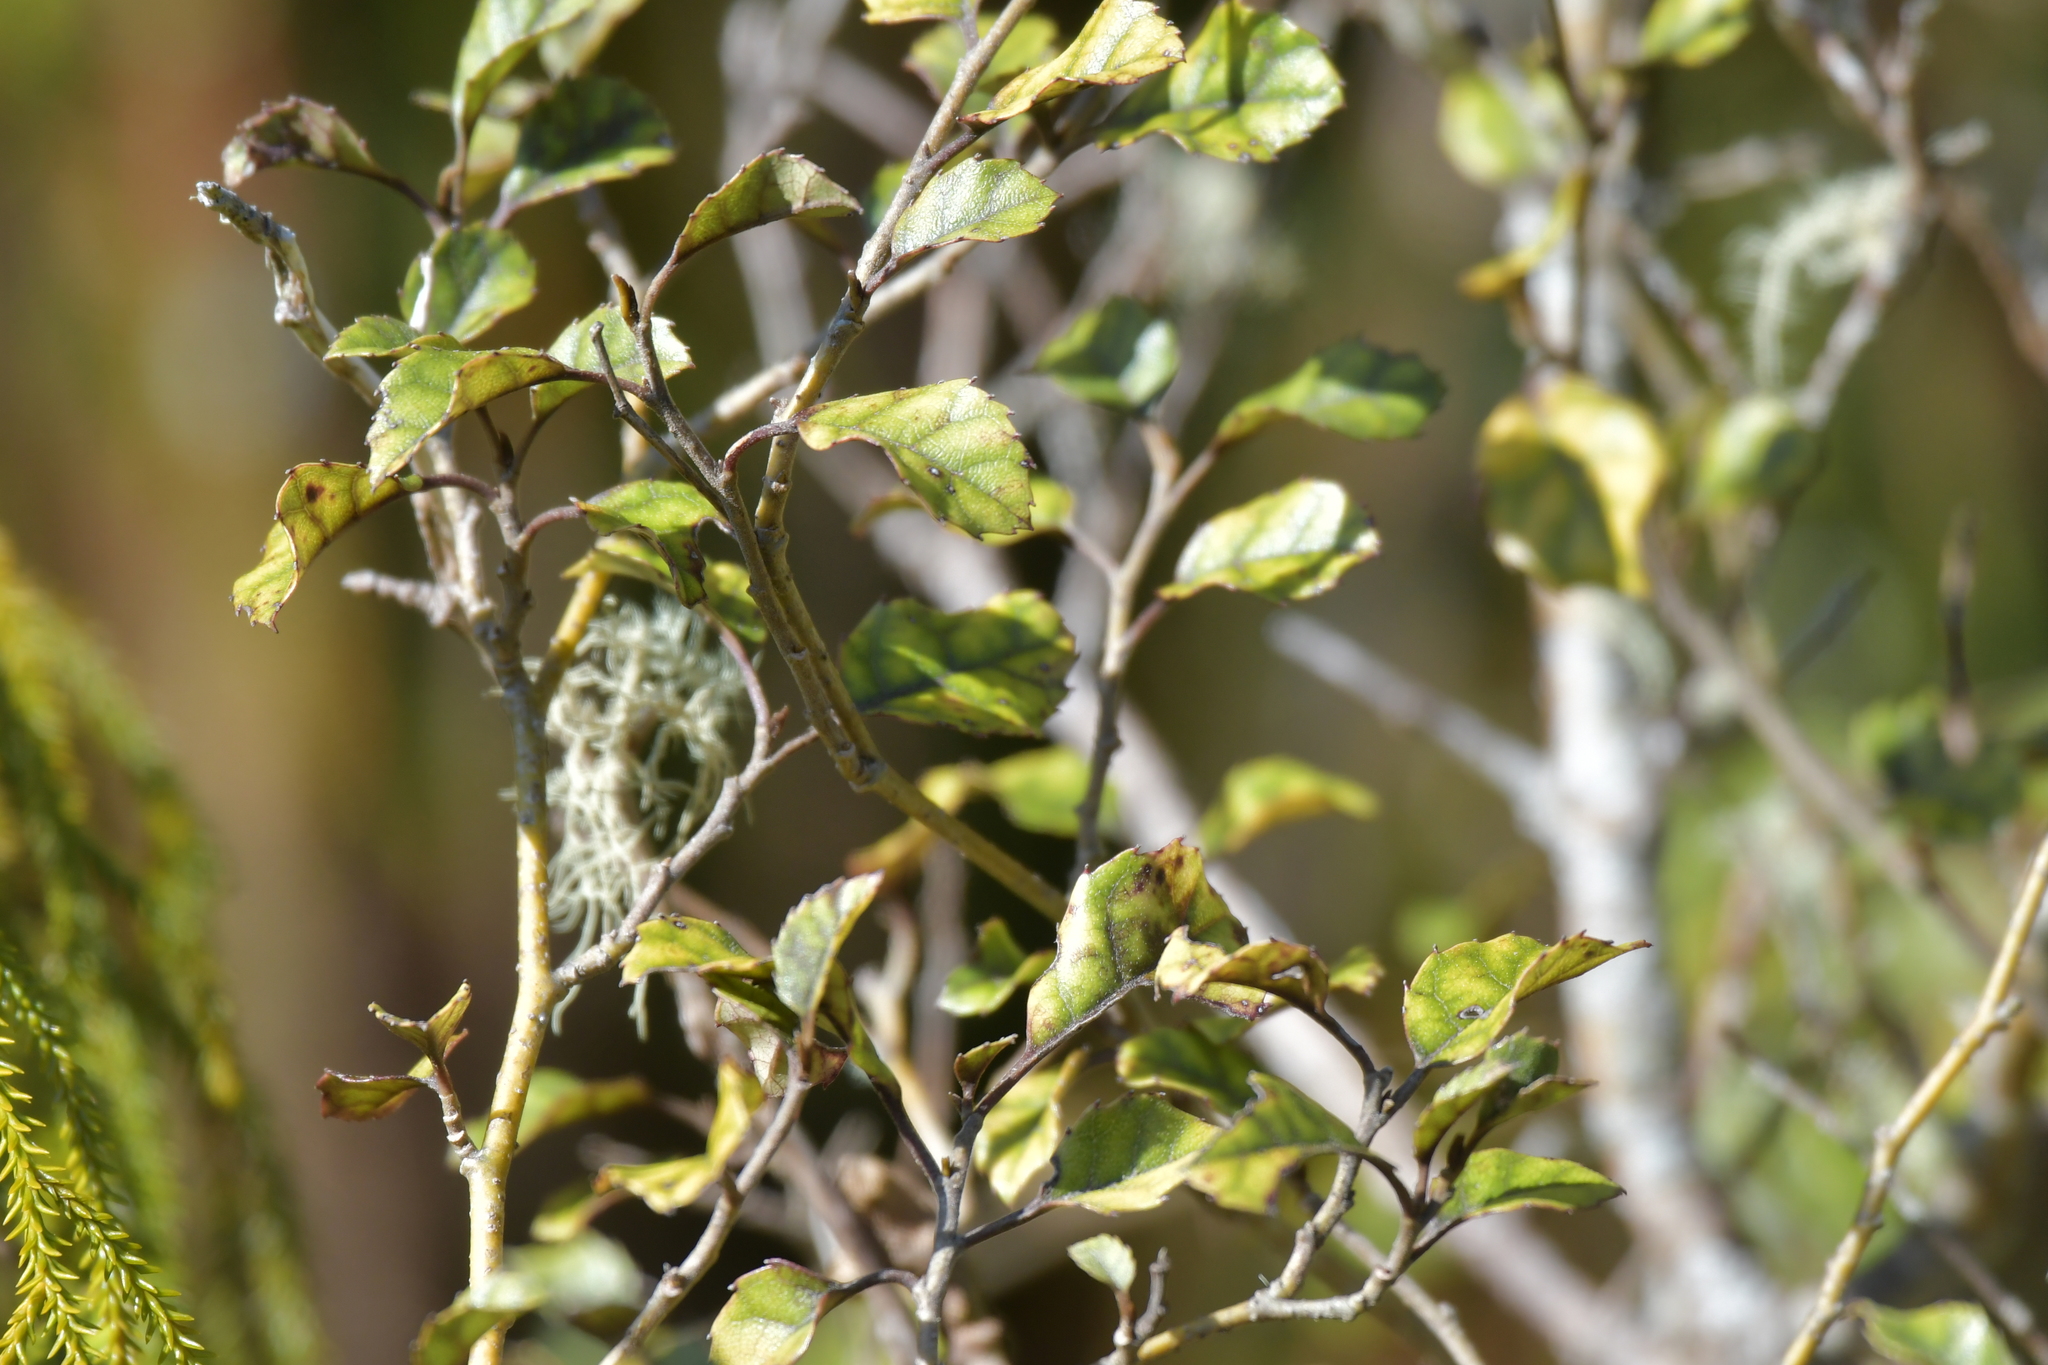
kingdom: Plantae
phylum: Tracheophyta
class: Magnoliopsida
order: Asterales
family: Rousseaceae
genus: Carpodetus
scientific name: Carpodetus serratus
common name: White mapau
